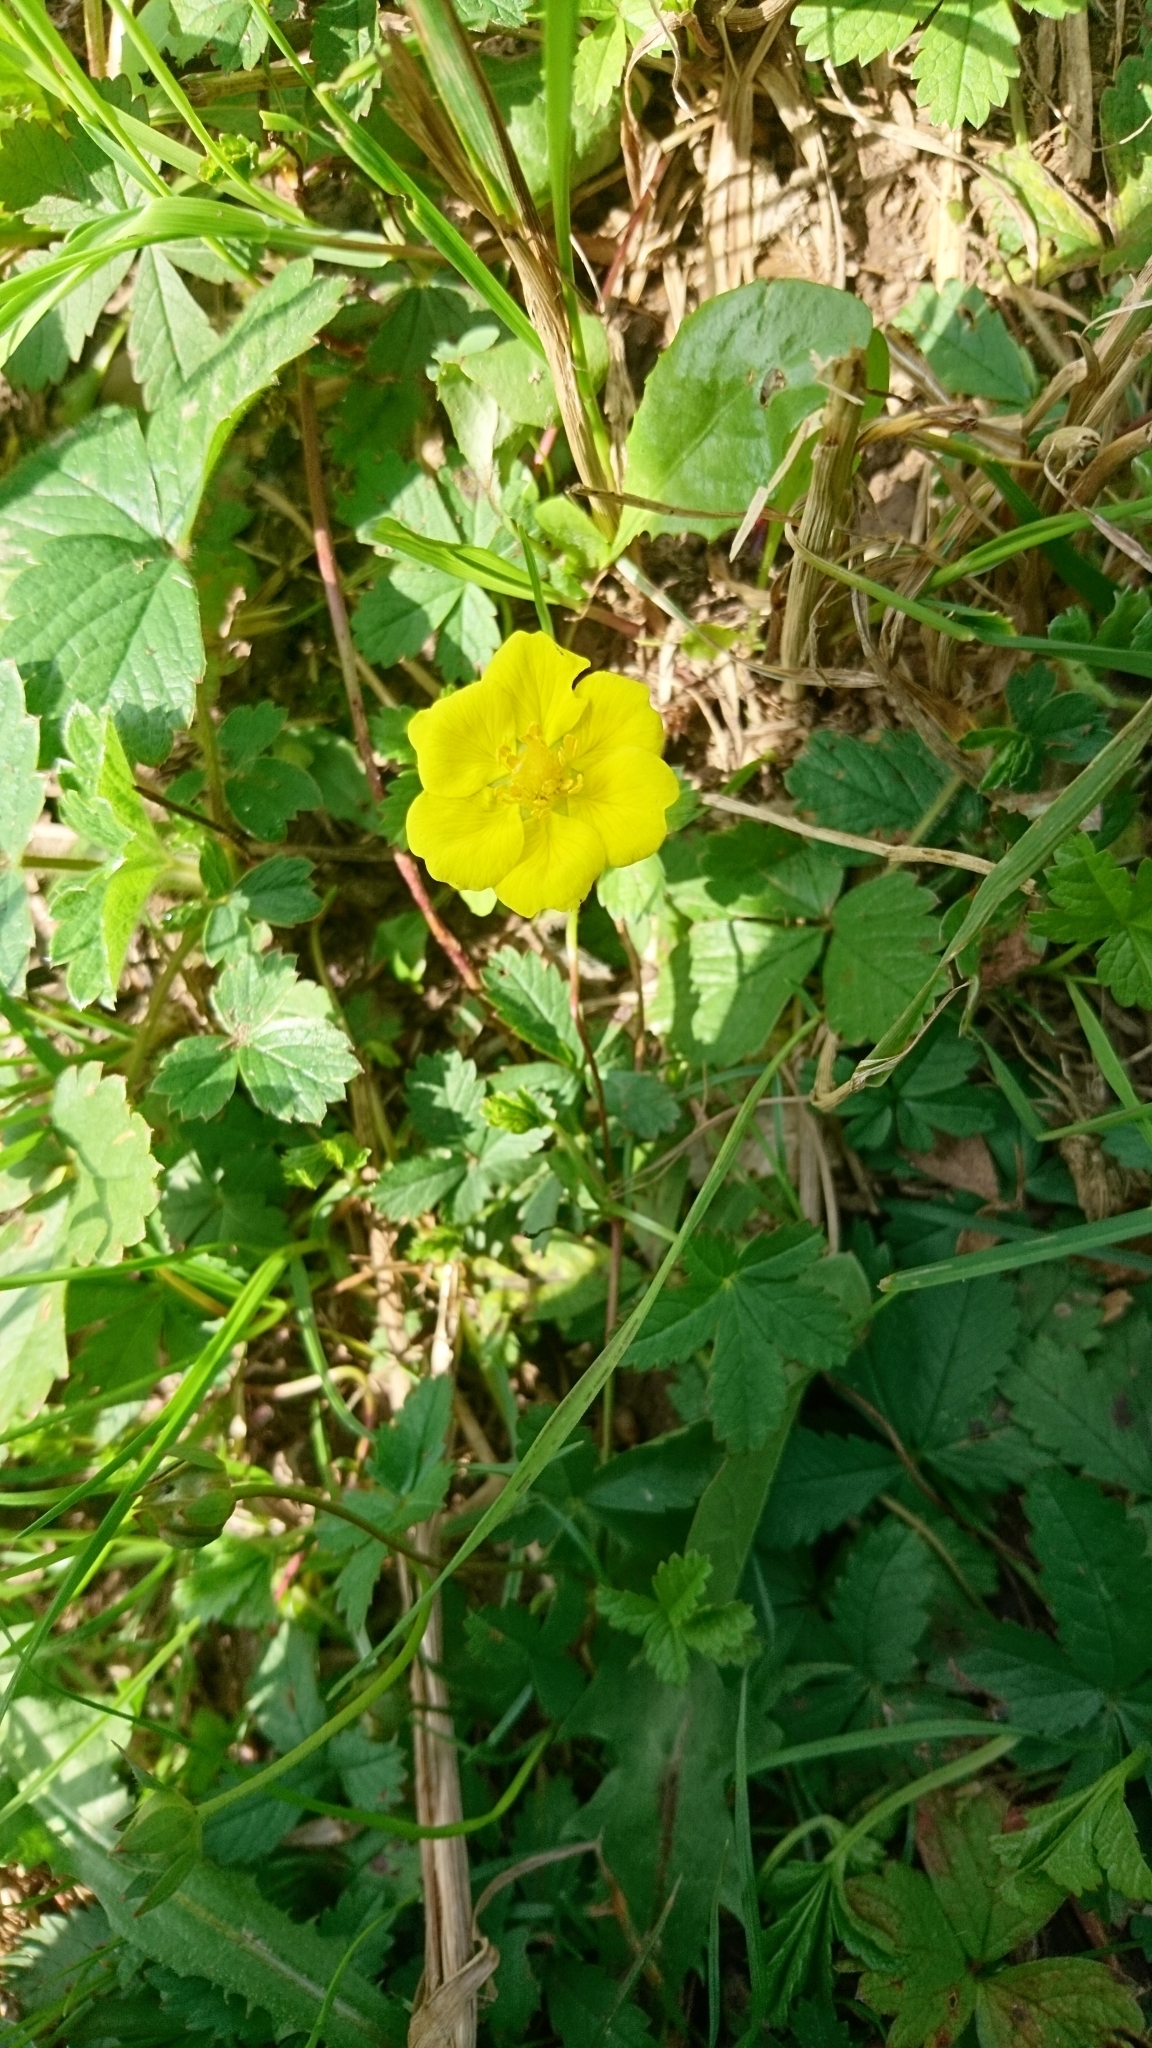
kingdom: Plantae
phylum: Tracheophyta
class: Magnoliopsida
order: Rosales
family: Rosaceae
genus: Potentilla
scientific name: Potentilla reptans
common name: Creeping cinquefoil
